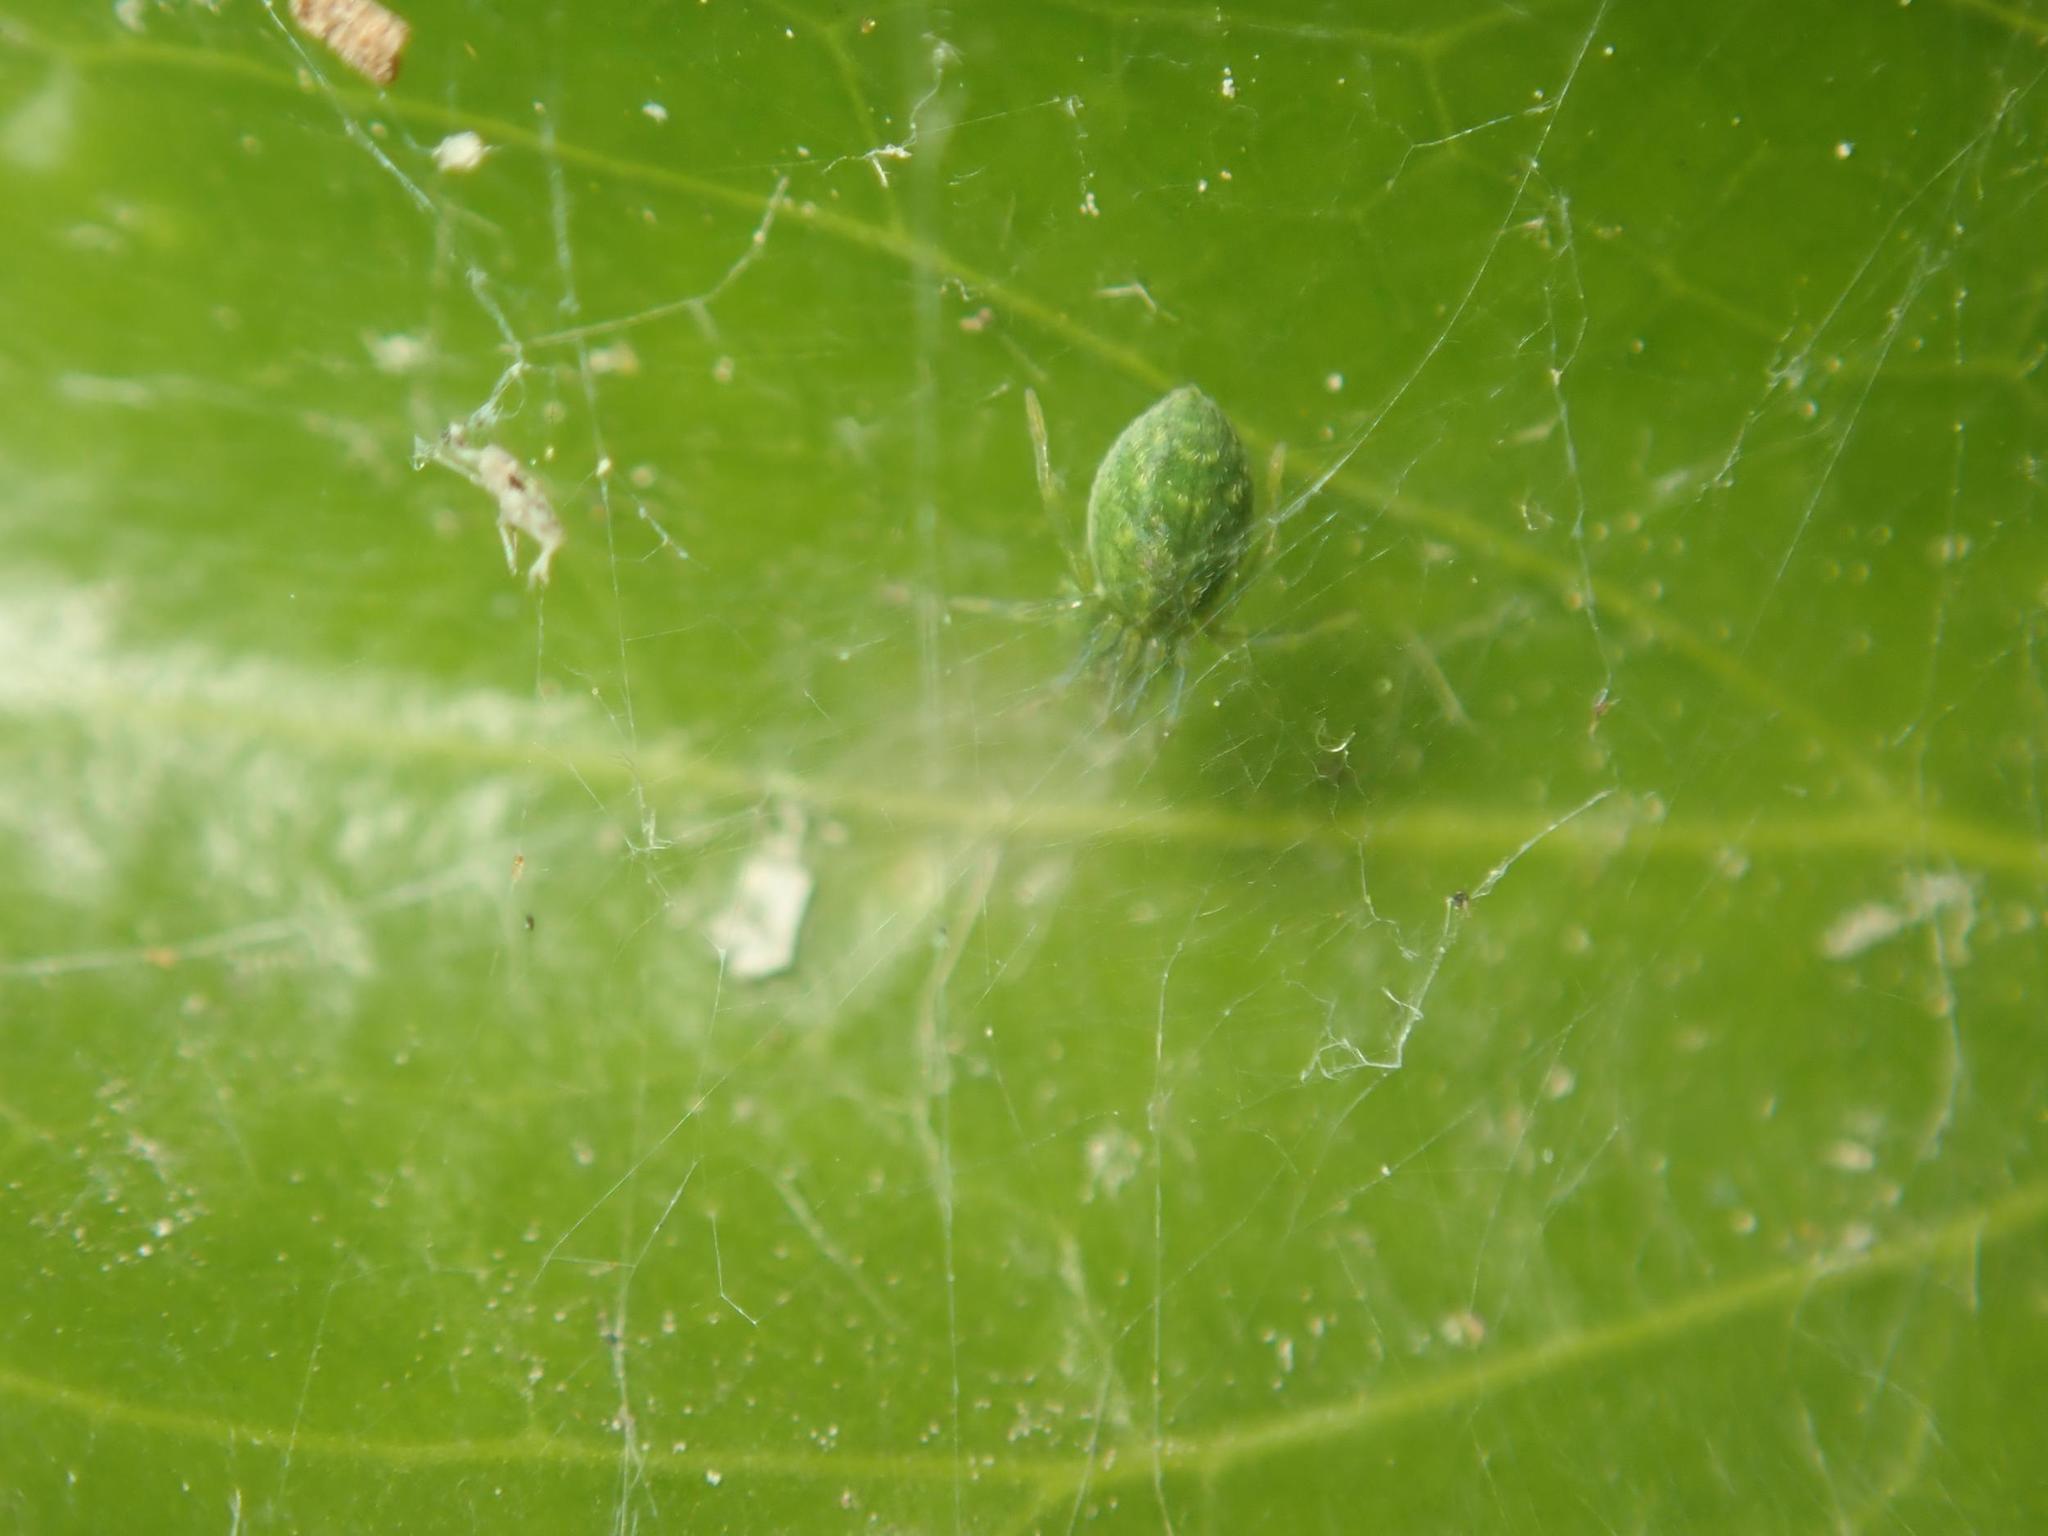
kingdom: Animalia
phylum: Arthropoda
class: Arachnida
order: Araneae
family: Dictynidae
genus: Nigma
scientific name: Nigma walckenaeri
